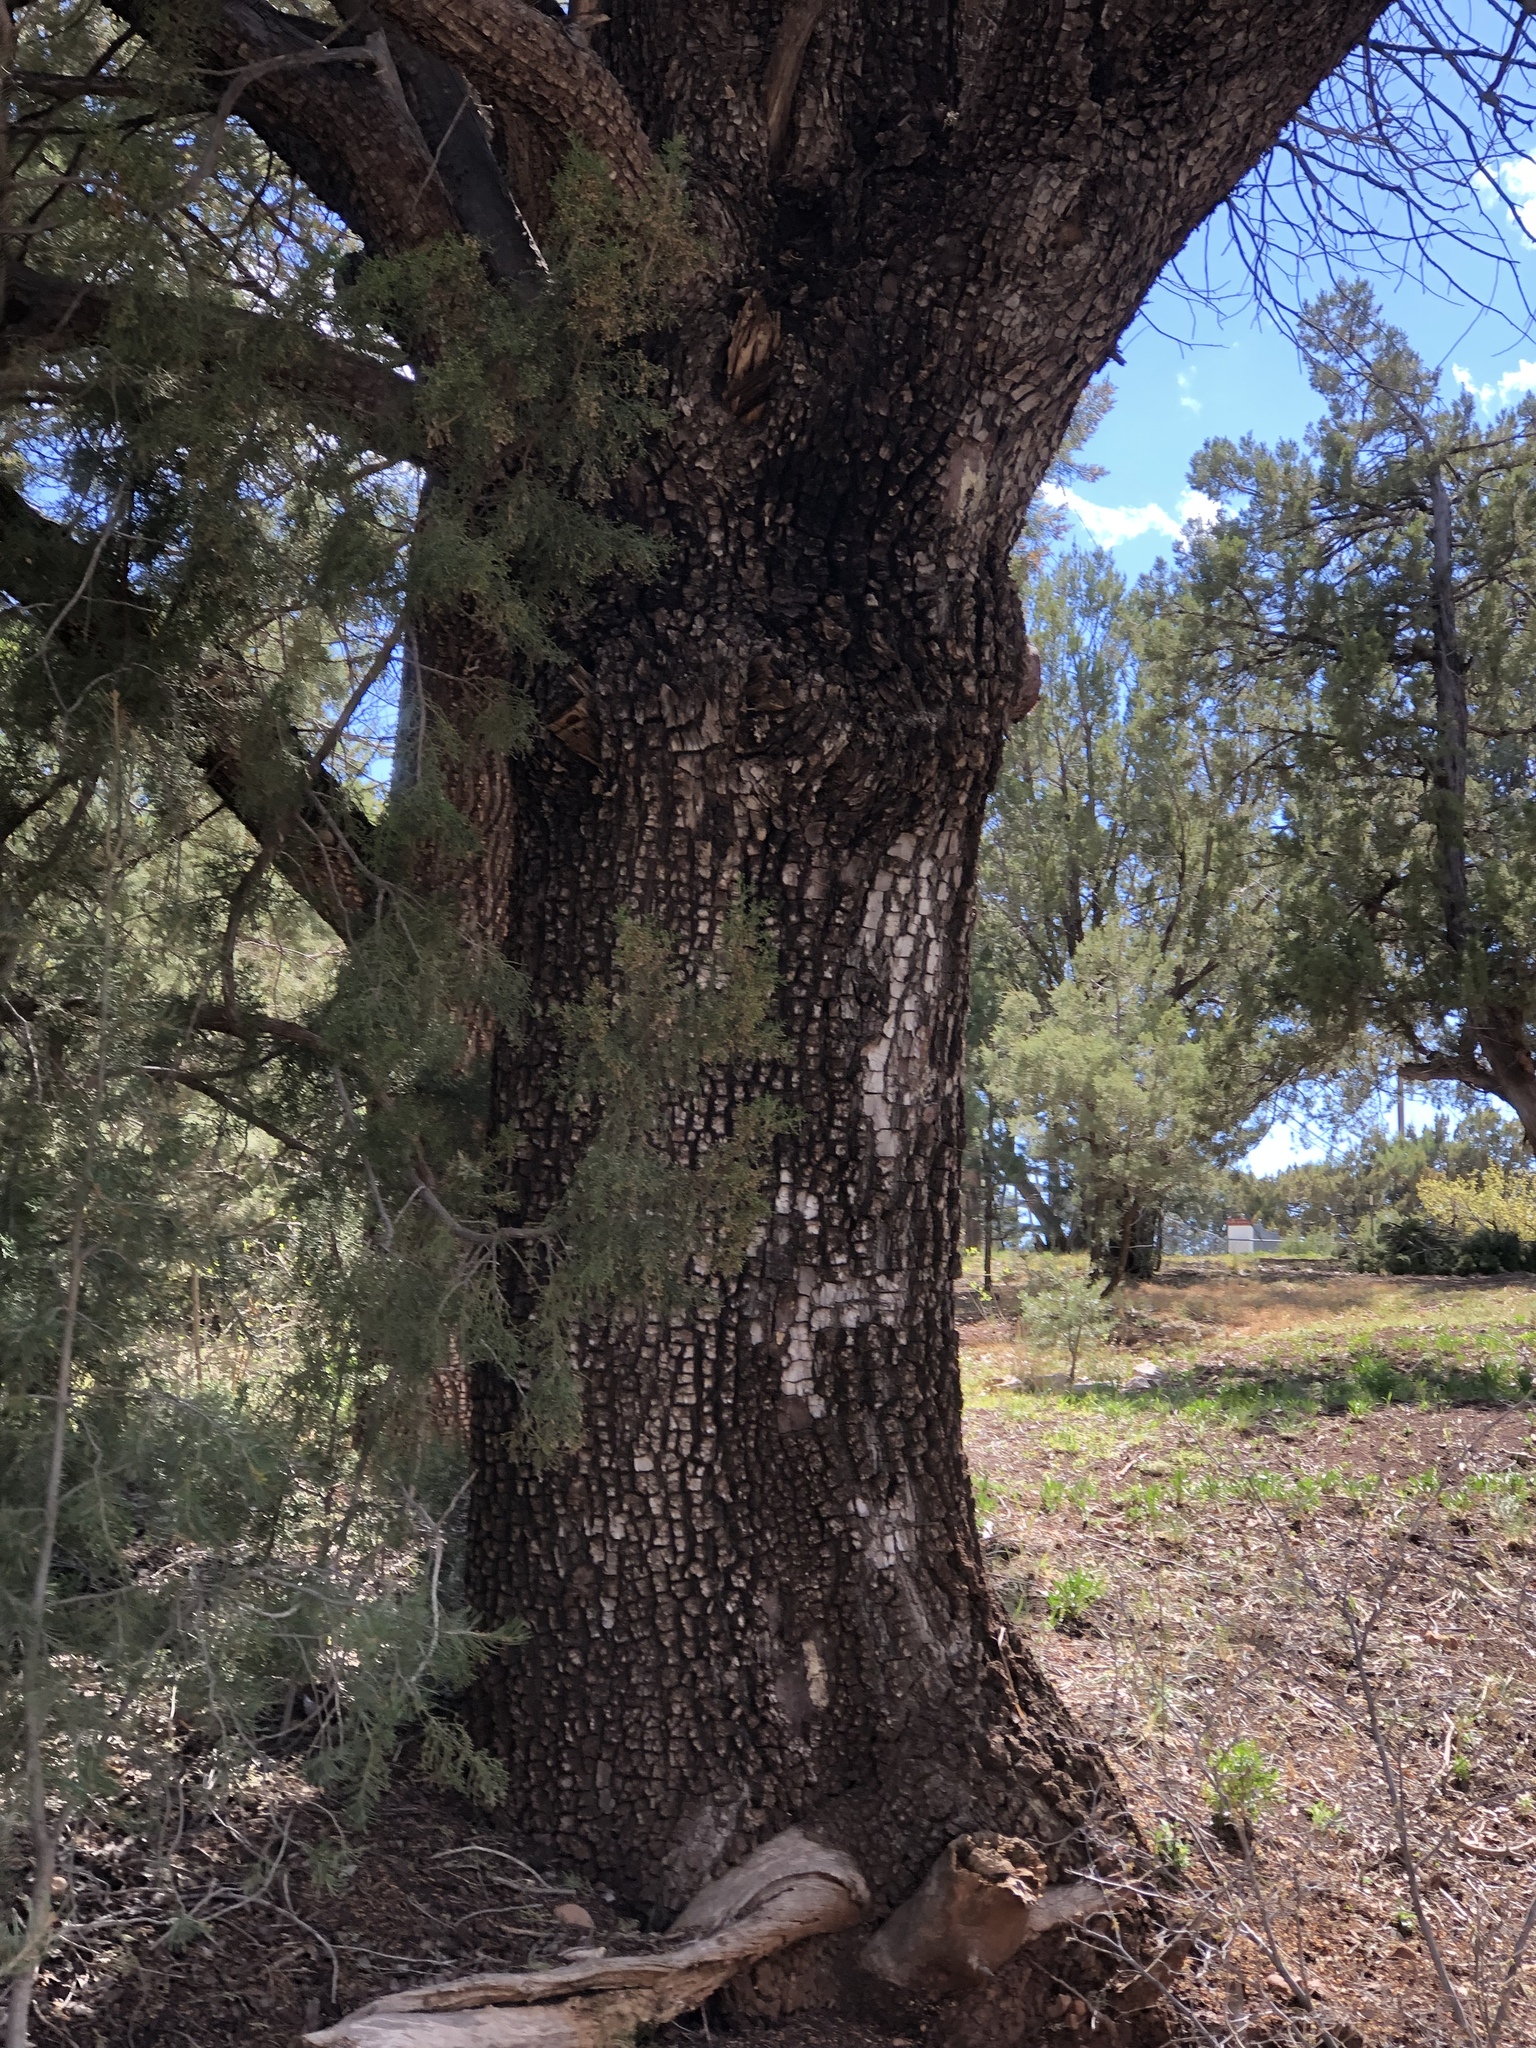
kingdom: Plantae
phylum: Tracheophyta
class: Pinopsida
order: Pinales
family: Cupressaceae
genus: Juniperus
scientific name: Juniperus deppeana
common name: Alligator juniper
